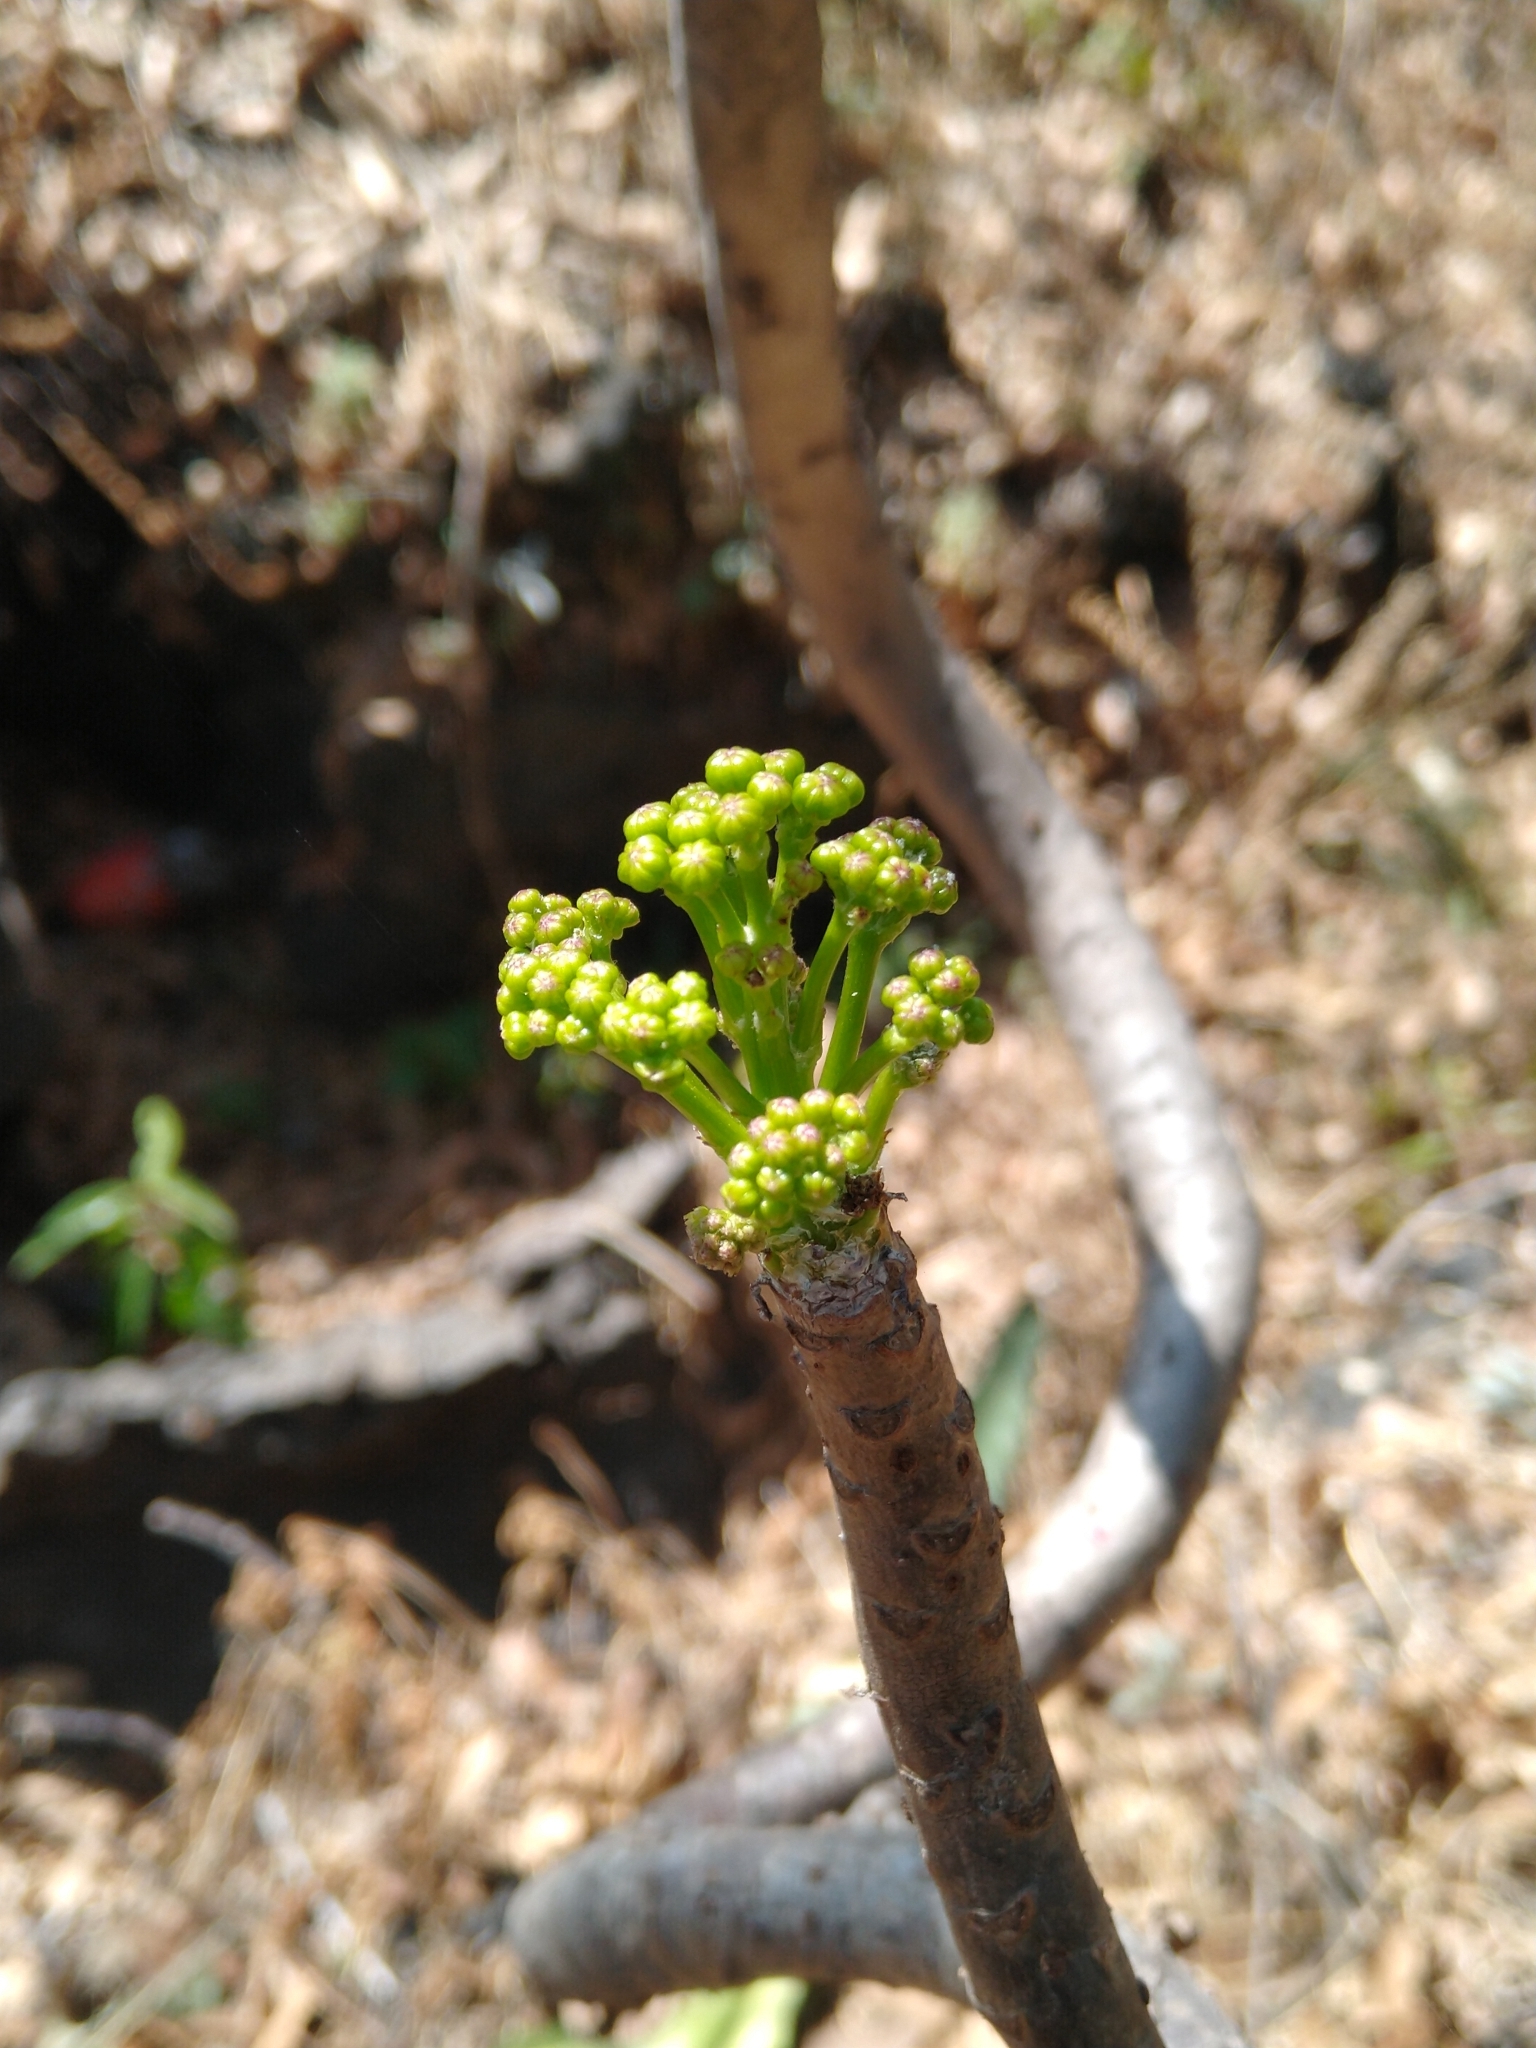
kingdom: Plantae
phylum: Tracheophyta
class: Magnoliopsida
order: Asterales
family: Asteraceae
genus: Pittocaulon
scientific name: Pittocaulon praecox
